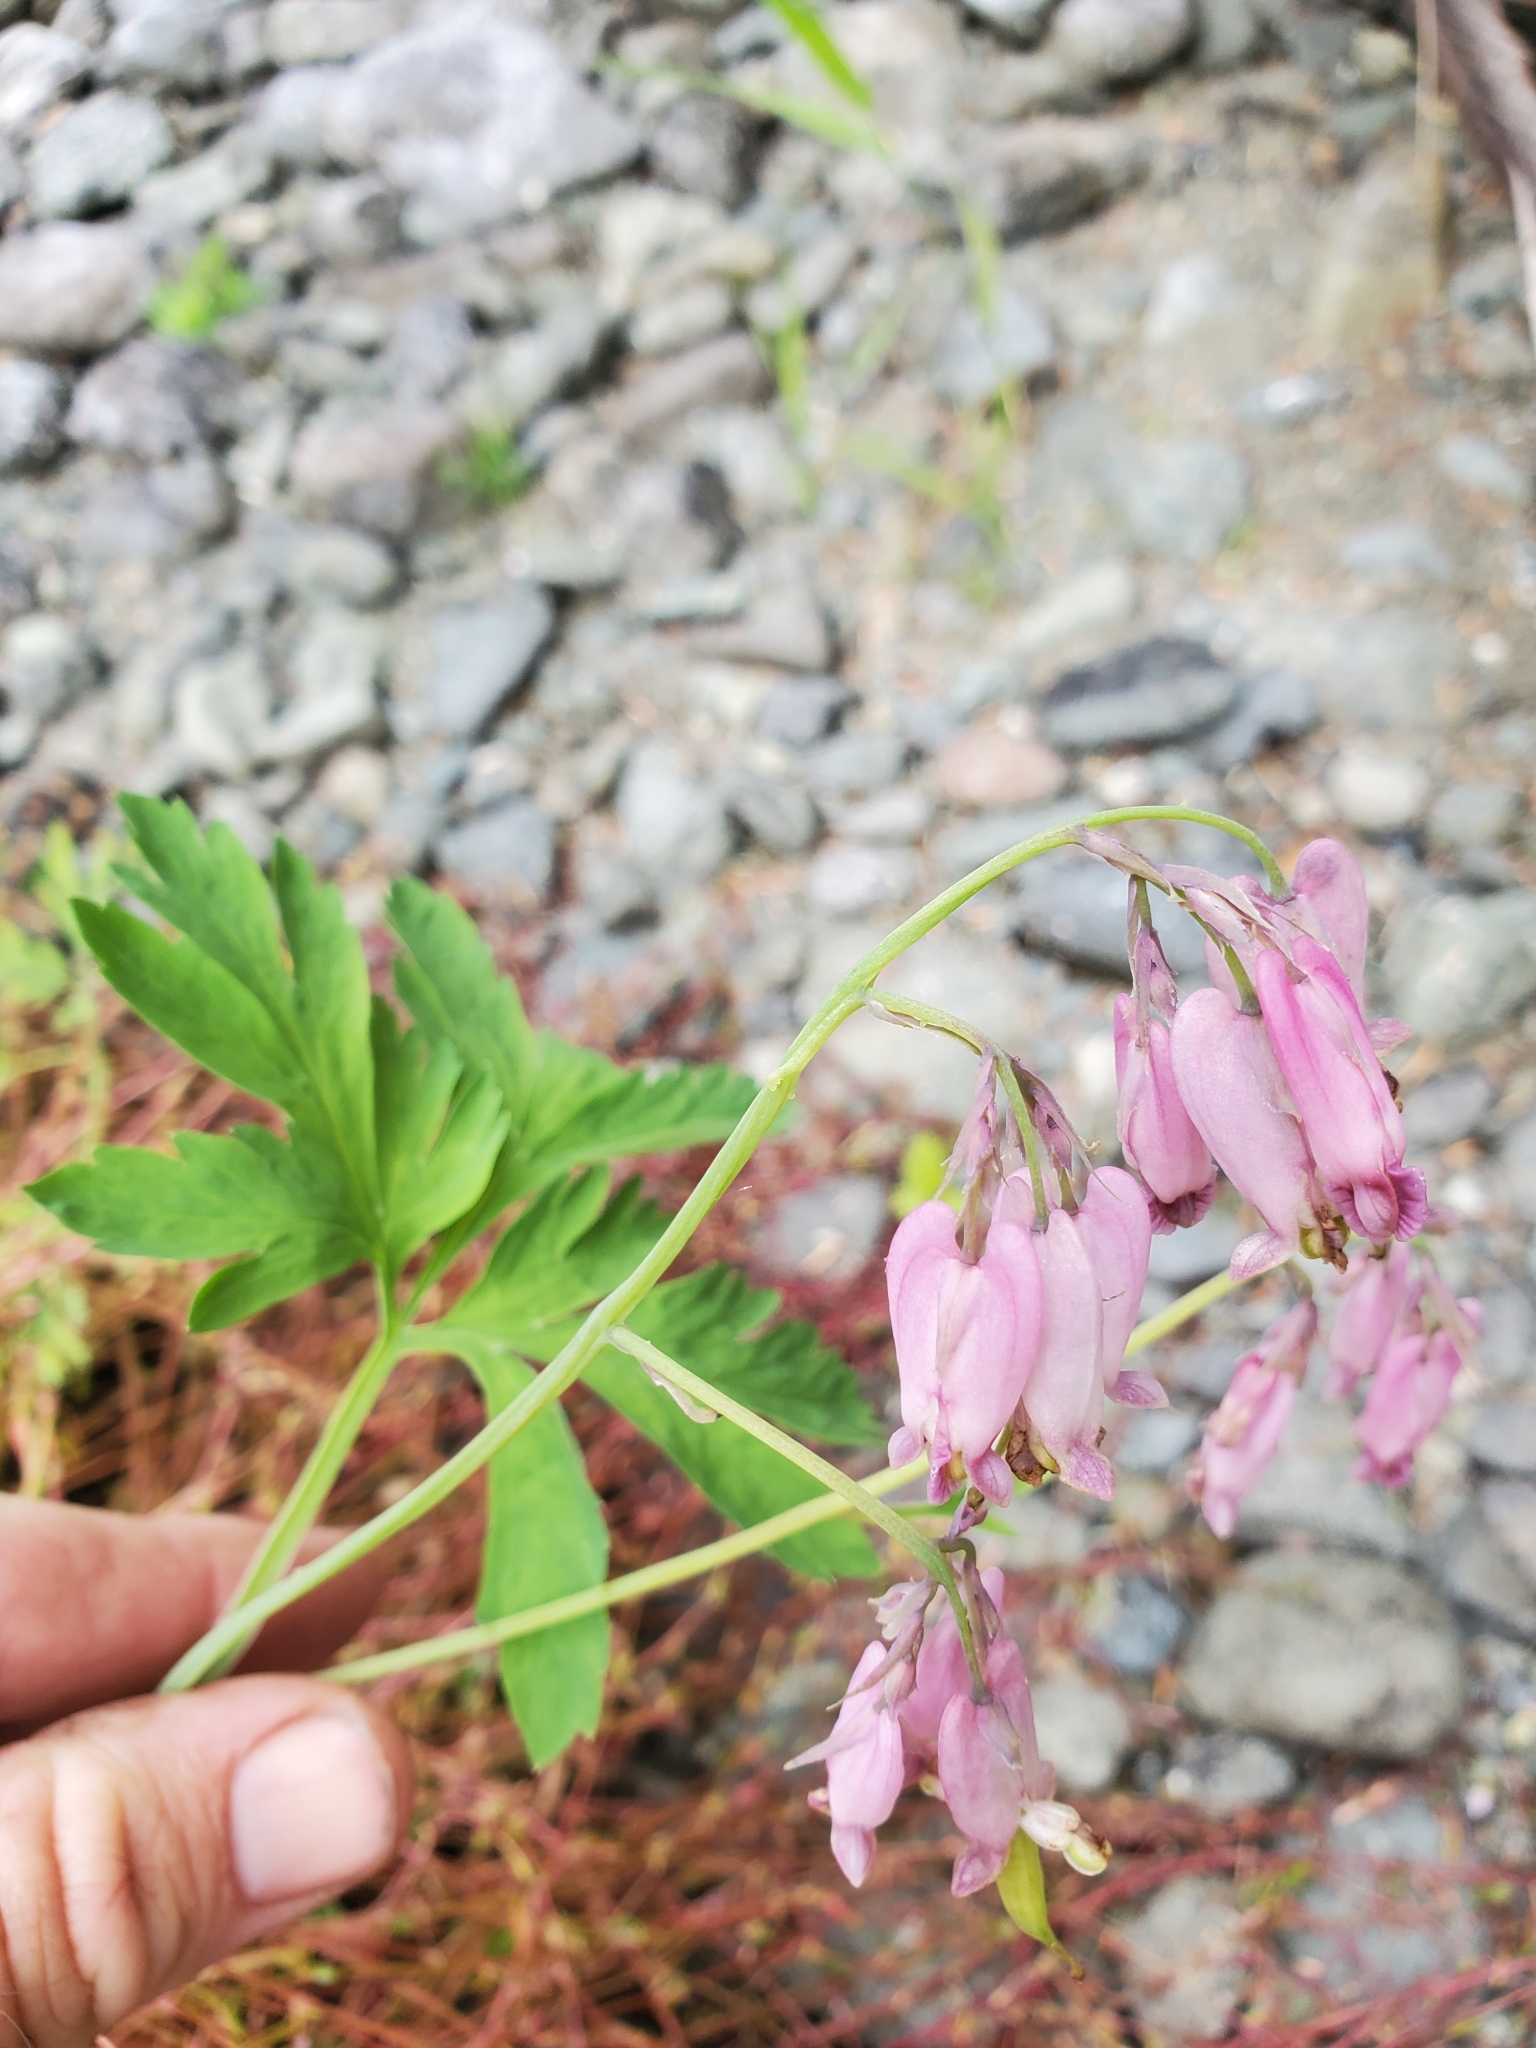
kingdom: Plantae
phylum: Tracheophyta
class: Magnoliopsida
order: Ranunculales
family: Papaveraceae
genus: Dicentra
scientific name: Dicentra formosa
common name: Bleeding-heart
